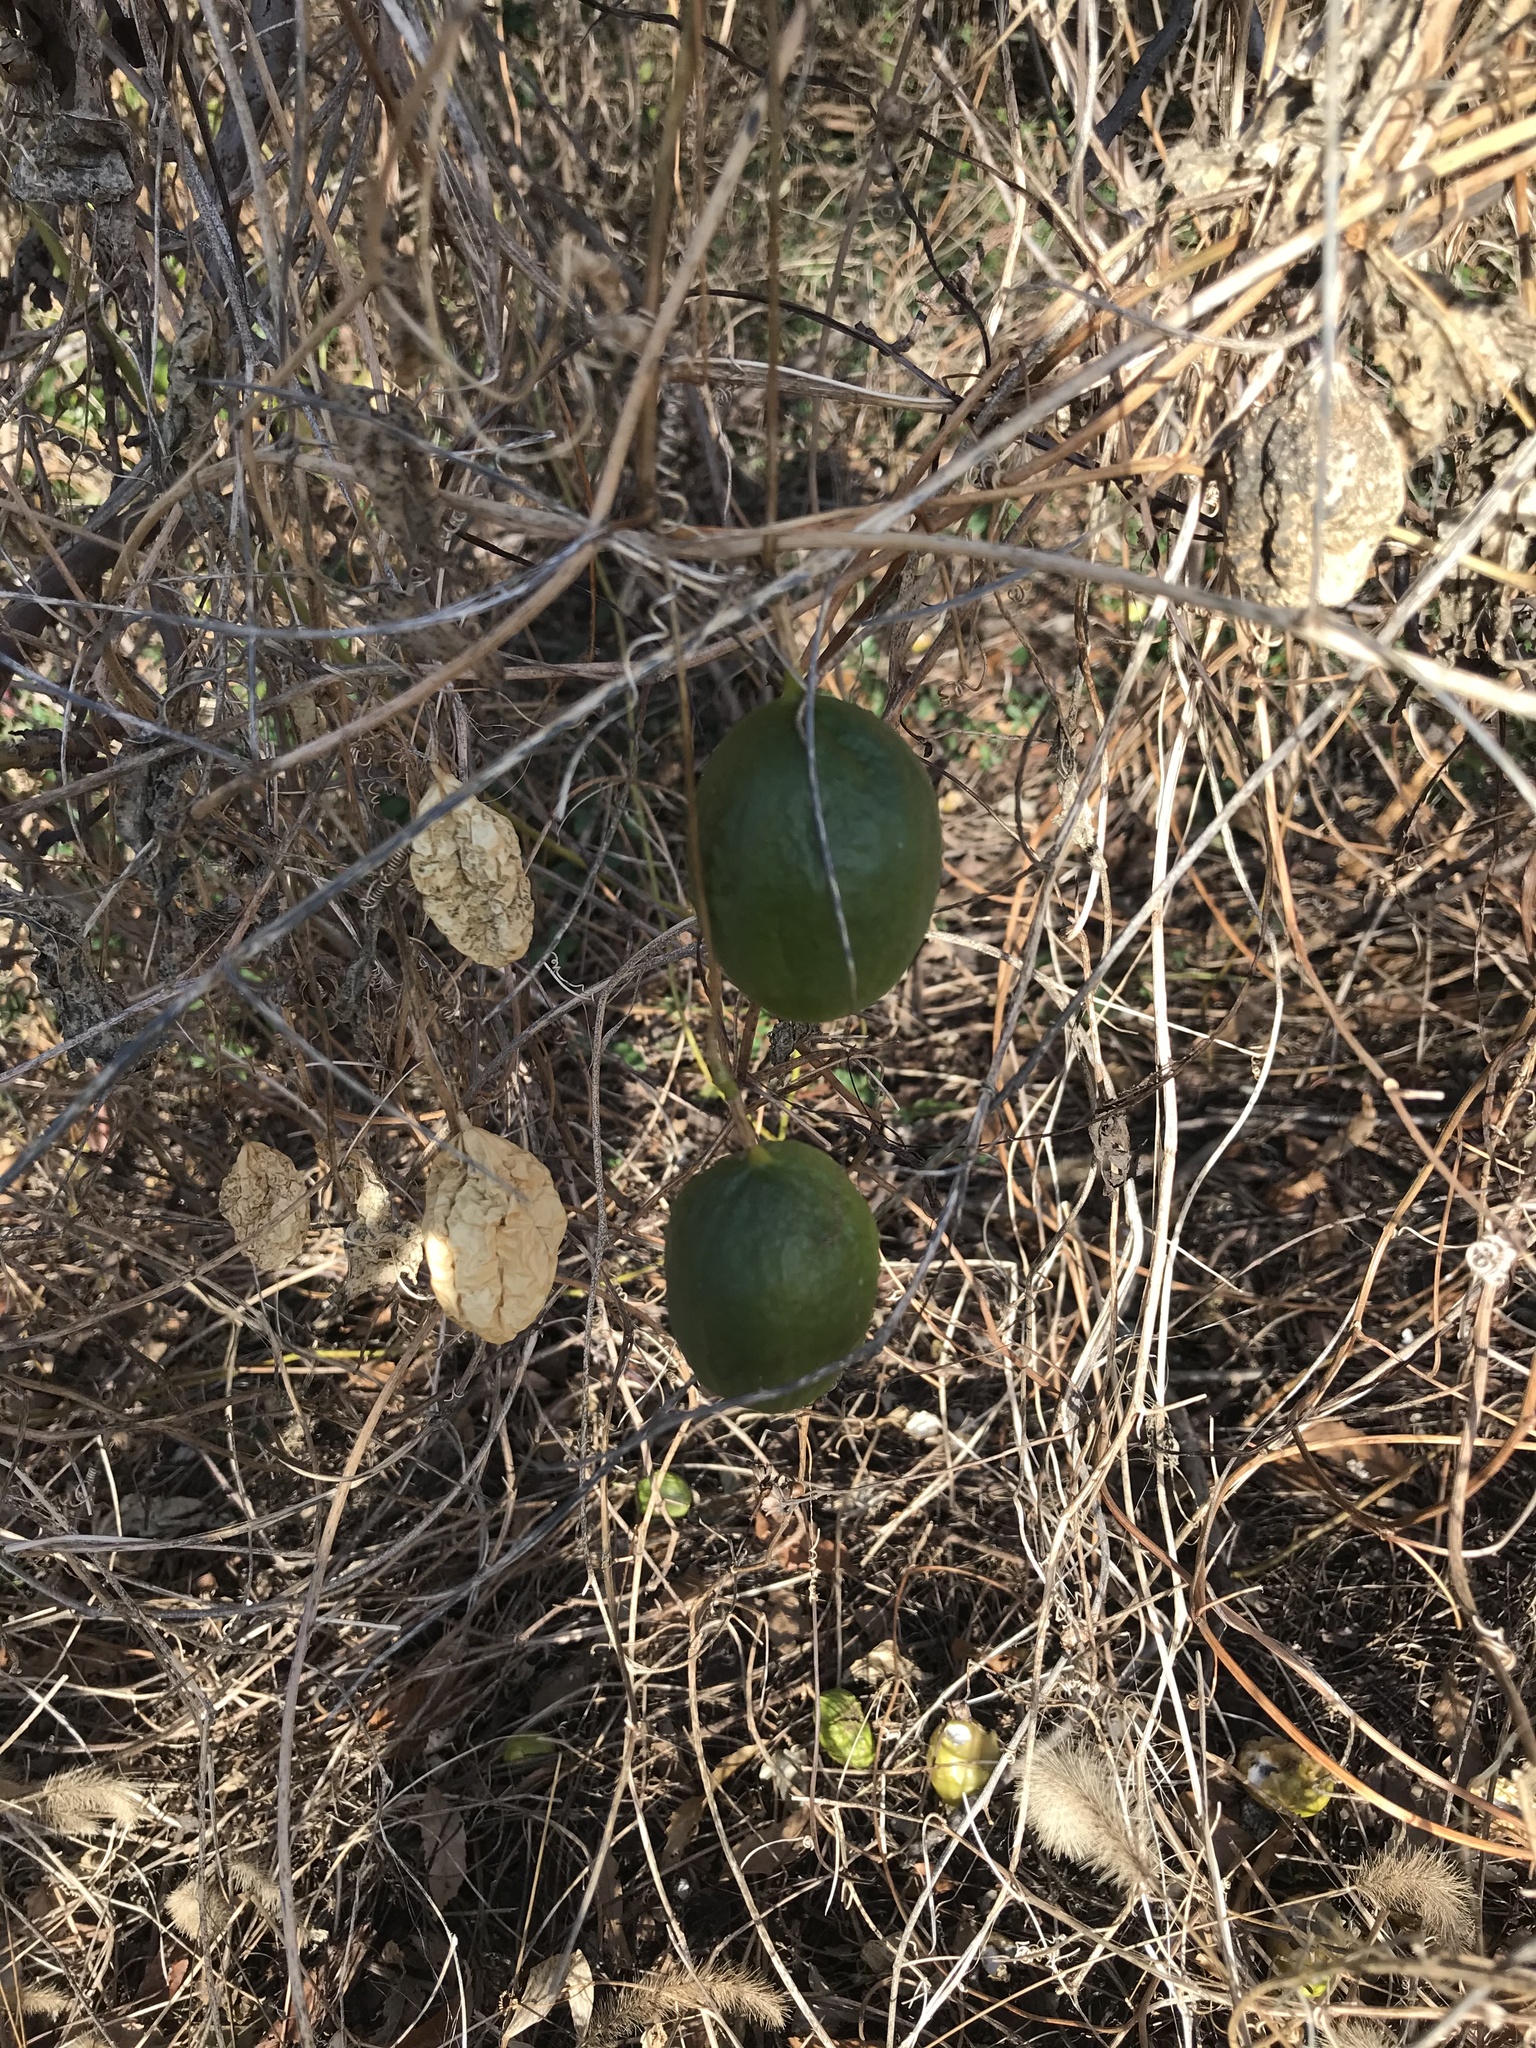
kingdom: Plantae
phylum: Tracheophyta
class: Magnoliopsida
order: Malpighiales
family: Passifloraceae
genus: Passiflora
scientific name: Passiflora incarnata
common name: Apricot-vine
